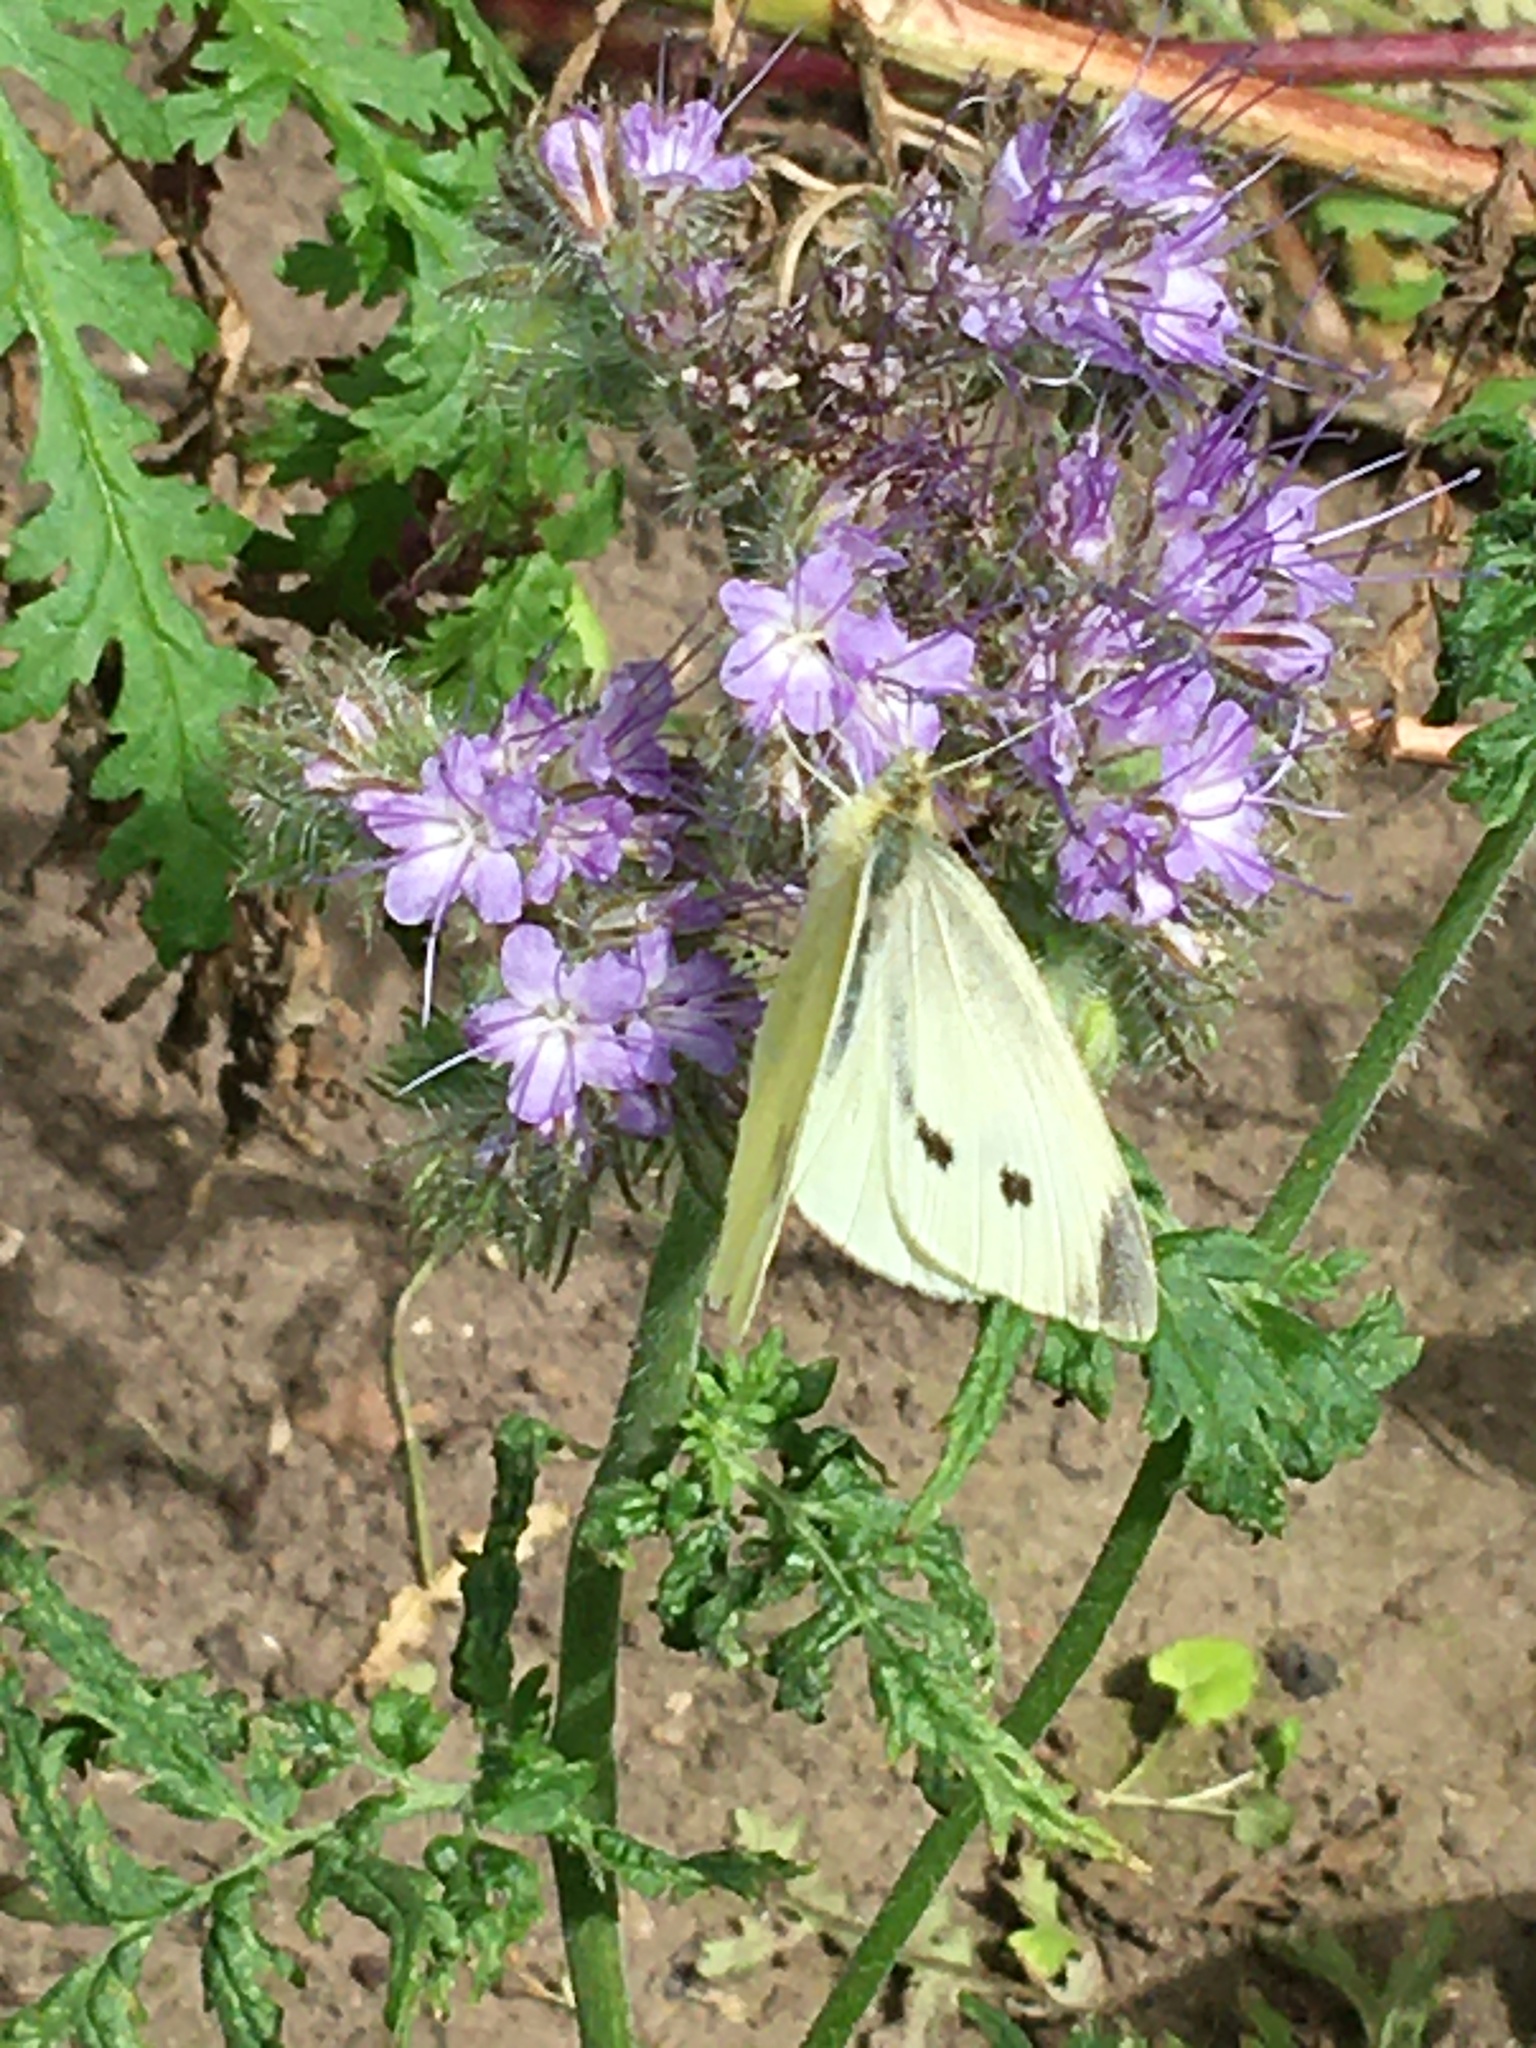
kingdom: Animalia
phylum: Arthropoda
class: Insecta
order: Lepidoptera
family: Pieridae
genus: Pieris
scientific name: Pieris rapae
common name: Small white
